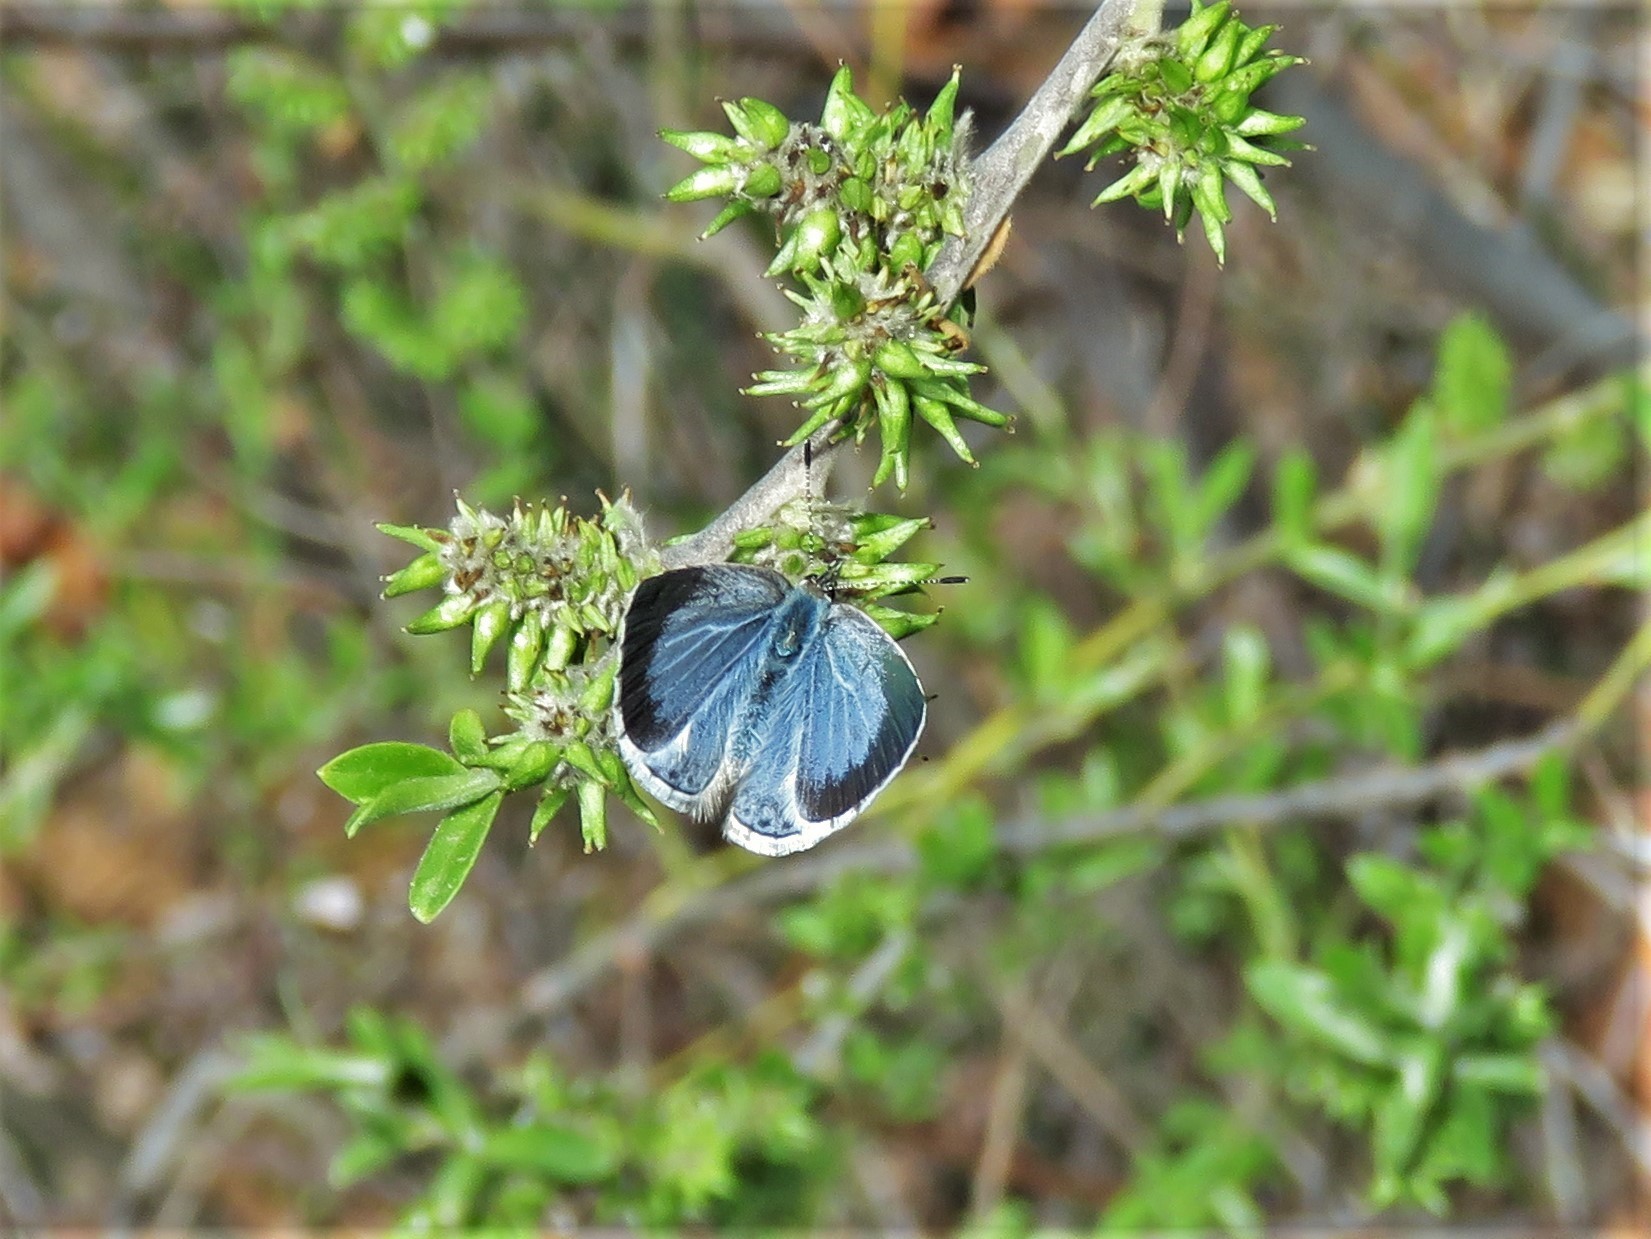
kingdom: Animalia
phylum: Arthropoda
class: Insecta
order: Lepidoptera
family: Lycaenidae
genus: Celastrina
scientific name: Celastrina argiolus
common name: Holly blue
